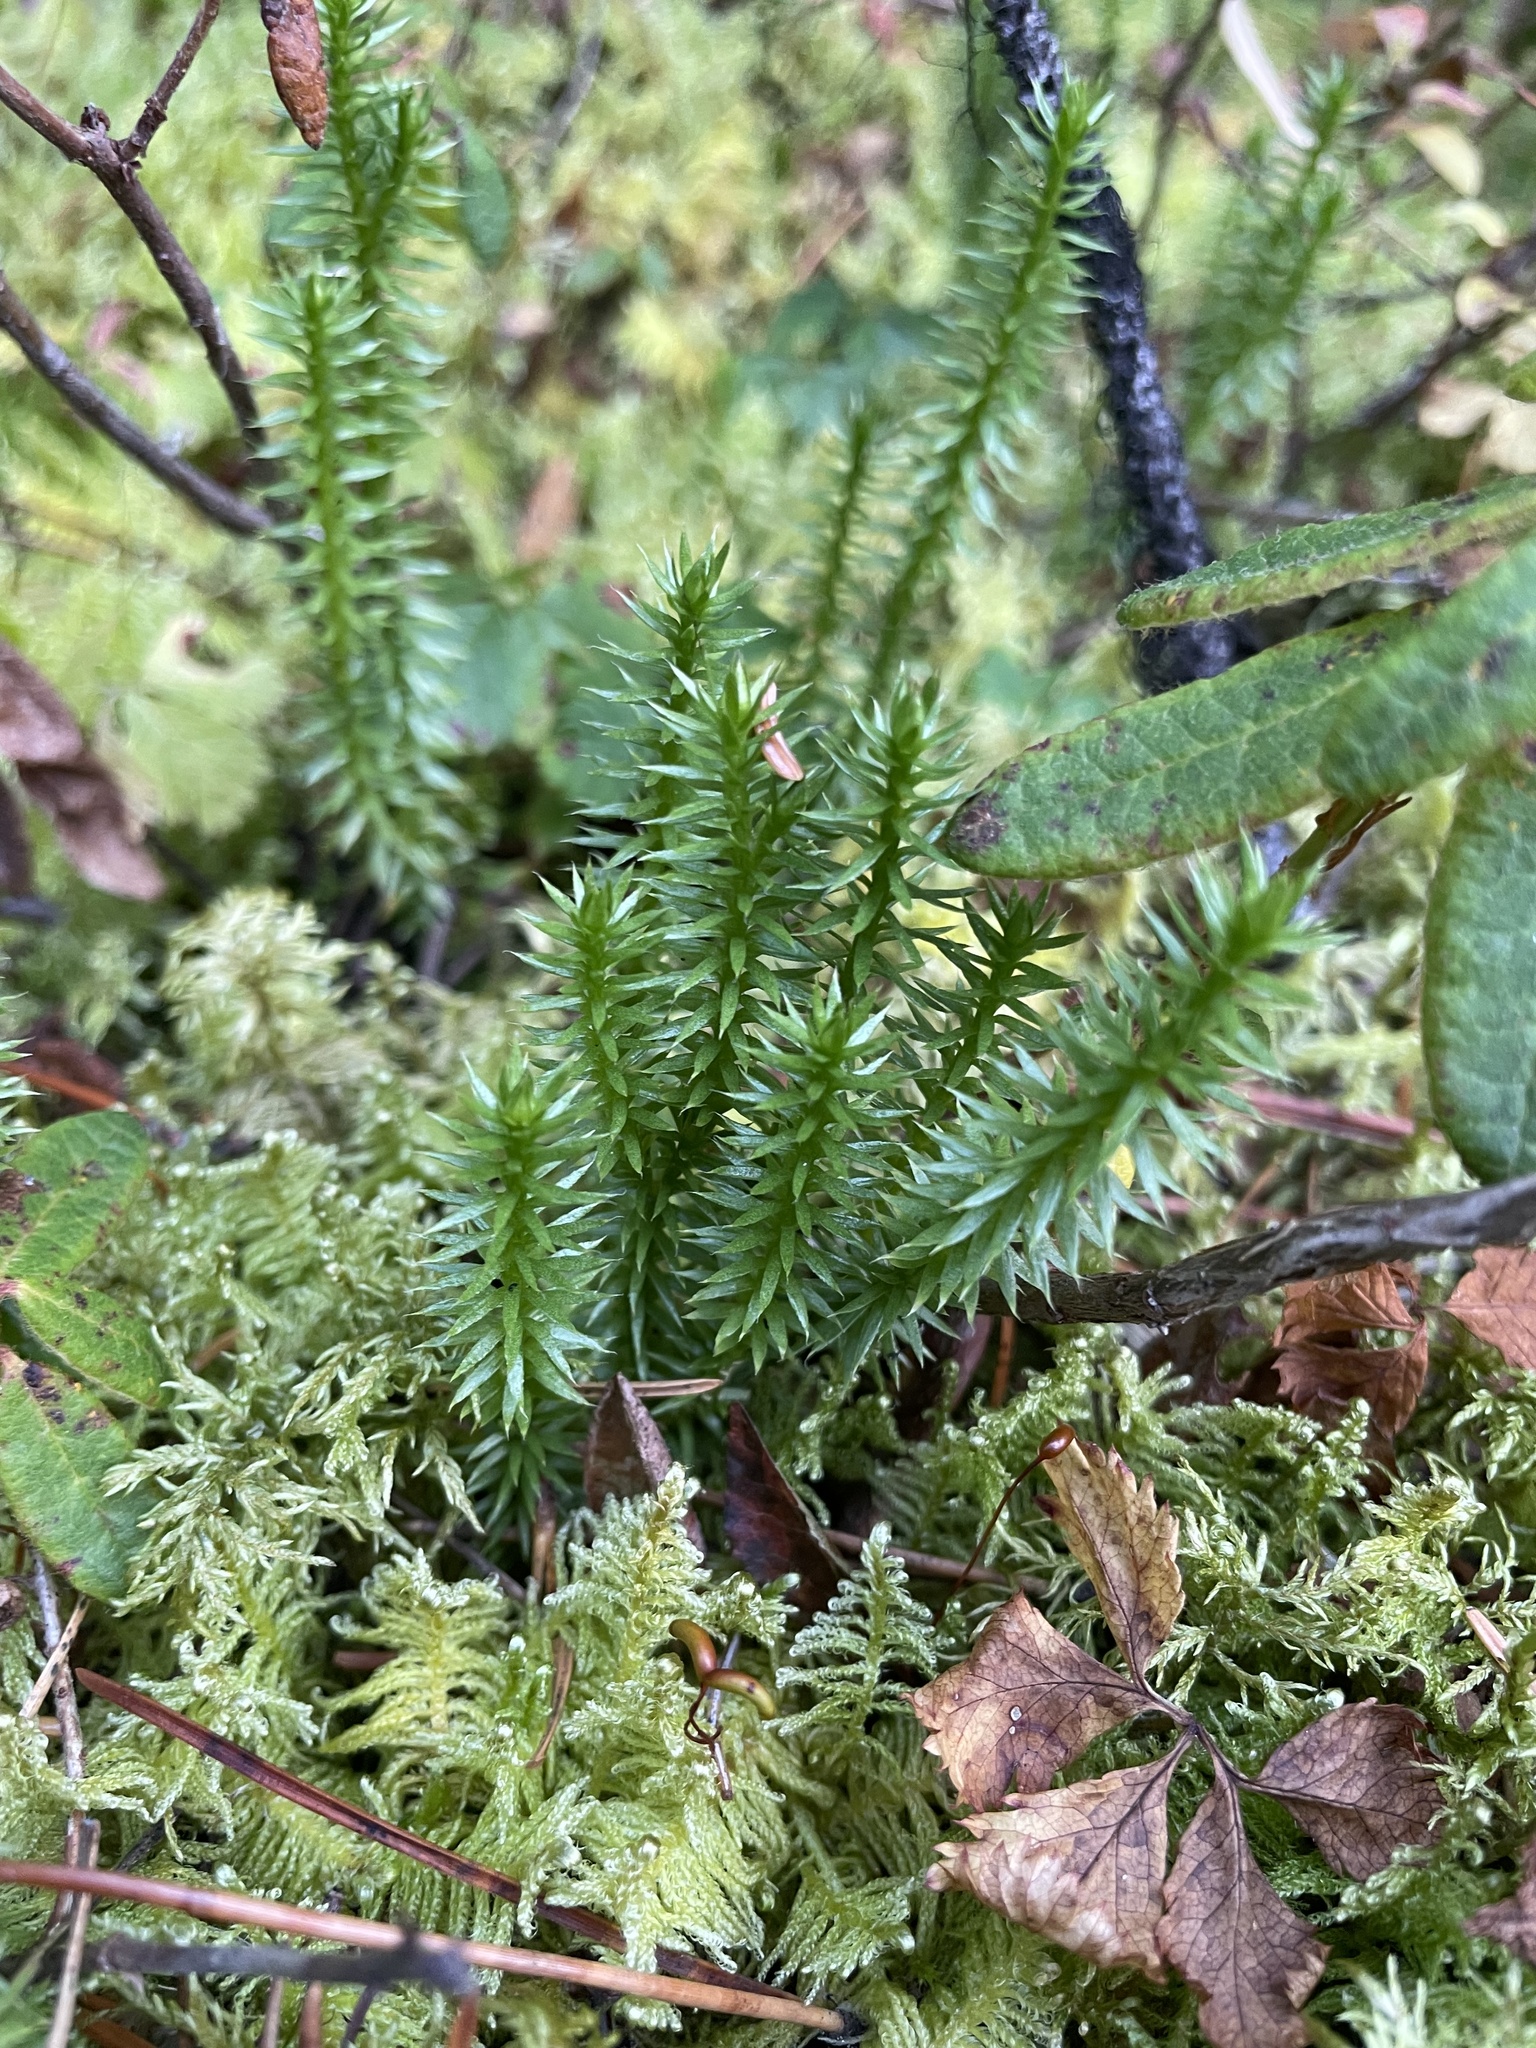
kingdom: Plantae
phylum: Tracheophyta
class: Lycopodiopsida
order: Lycopodiales
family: Lycopodiaceae
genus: Spinulum
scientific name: Spinulum annotinum
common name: Interrupted club-moss
